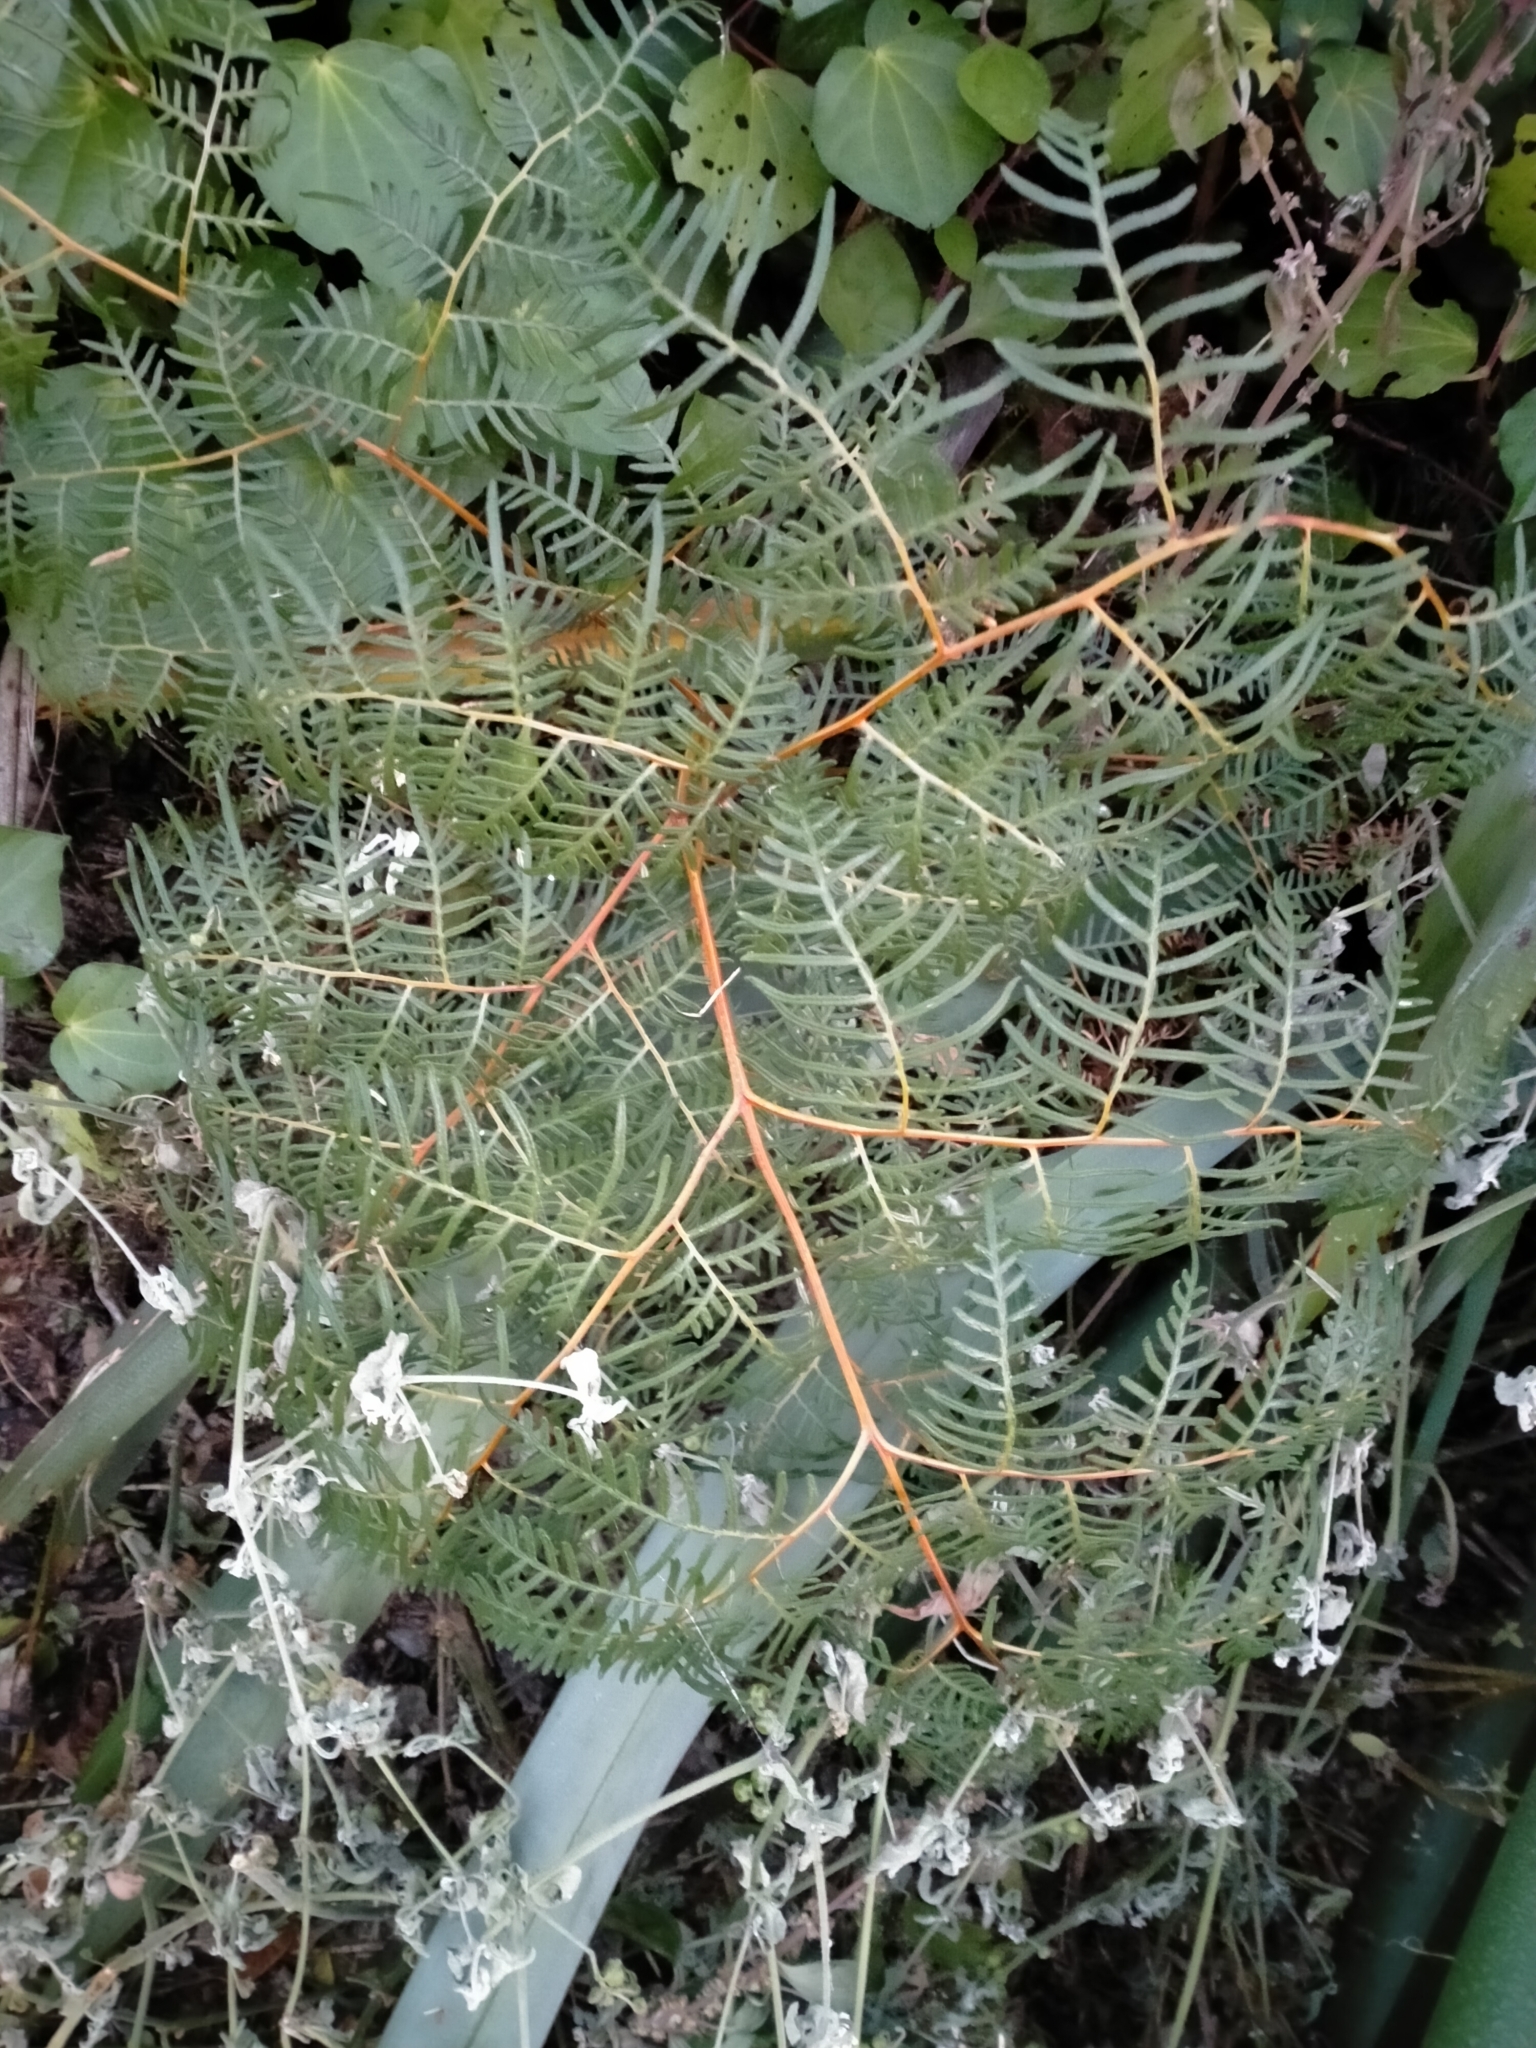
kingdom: Plantae
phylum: Tracheophyta
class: Polypodiopsida
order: Polypodiales
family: Dennstaedtiaceae
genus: Pteridium
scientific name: Pteridium esculentum
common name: Bracken fern
